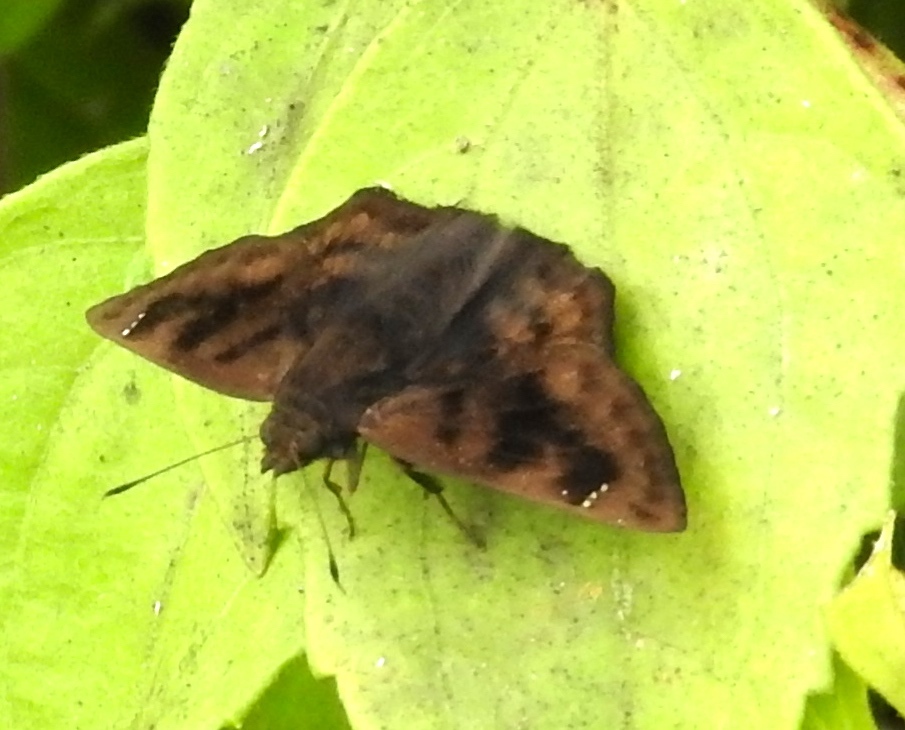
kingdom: Animalia
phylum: Arthropoda
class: Insecta
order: Lepidoptera
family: Hesperiidae
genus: Nisoniades
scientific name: Nisoniades
